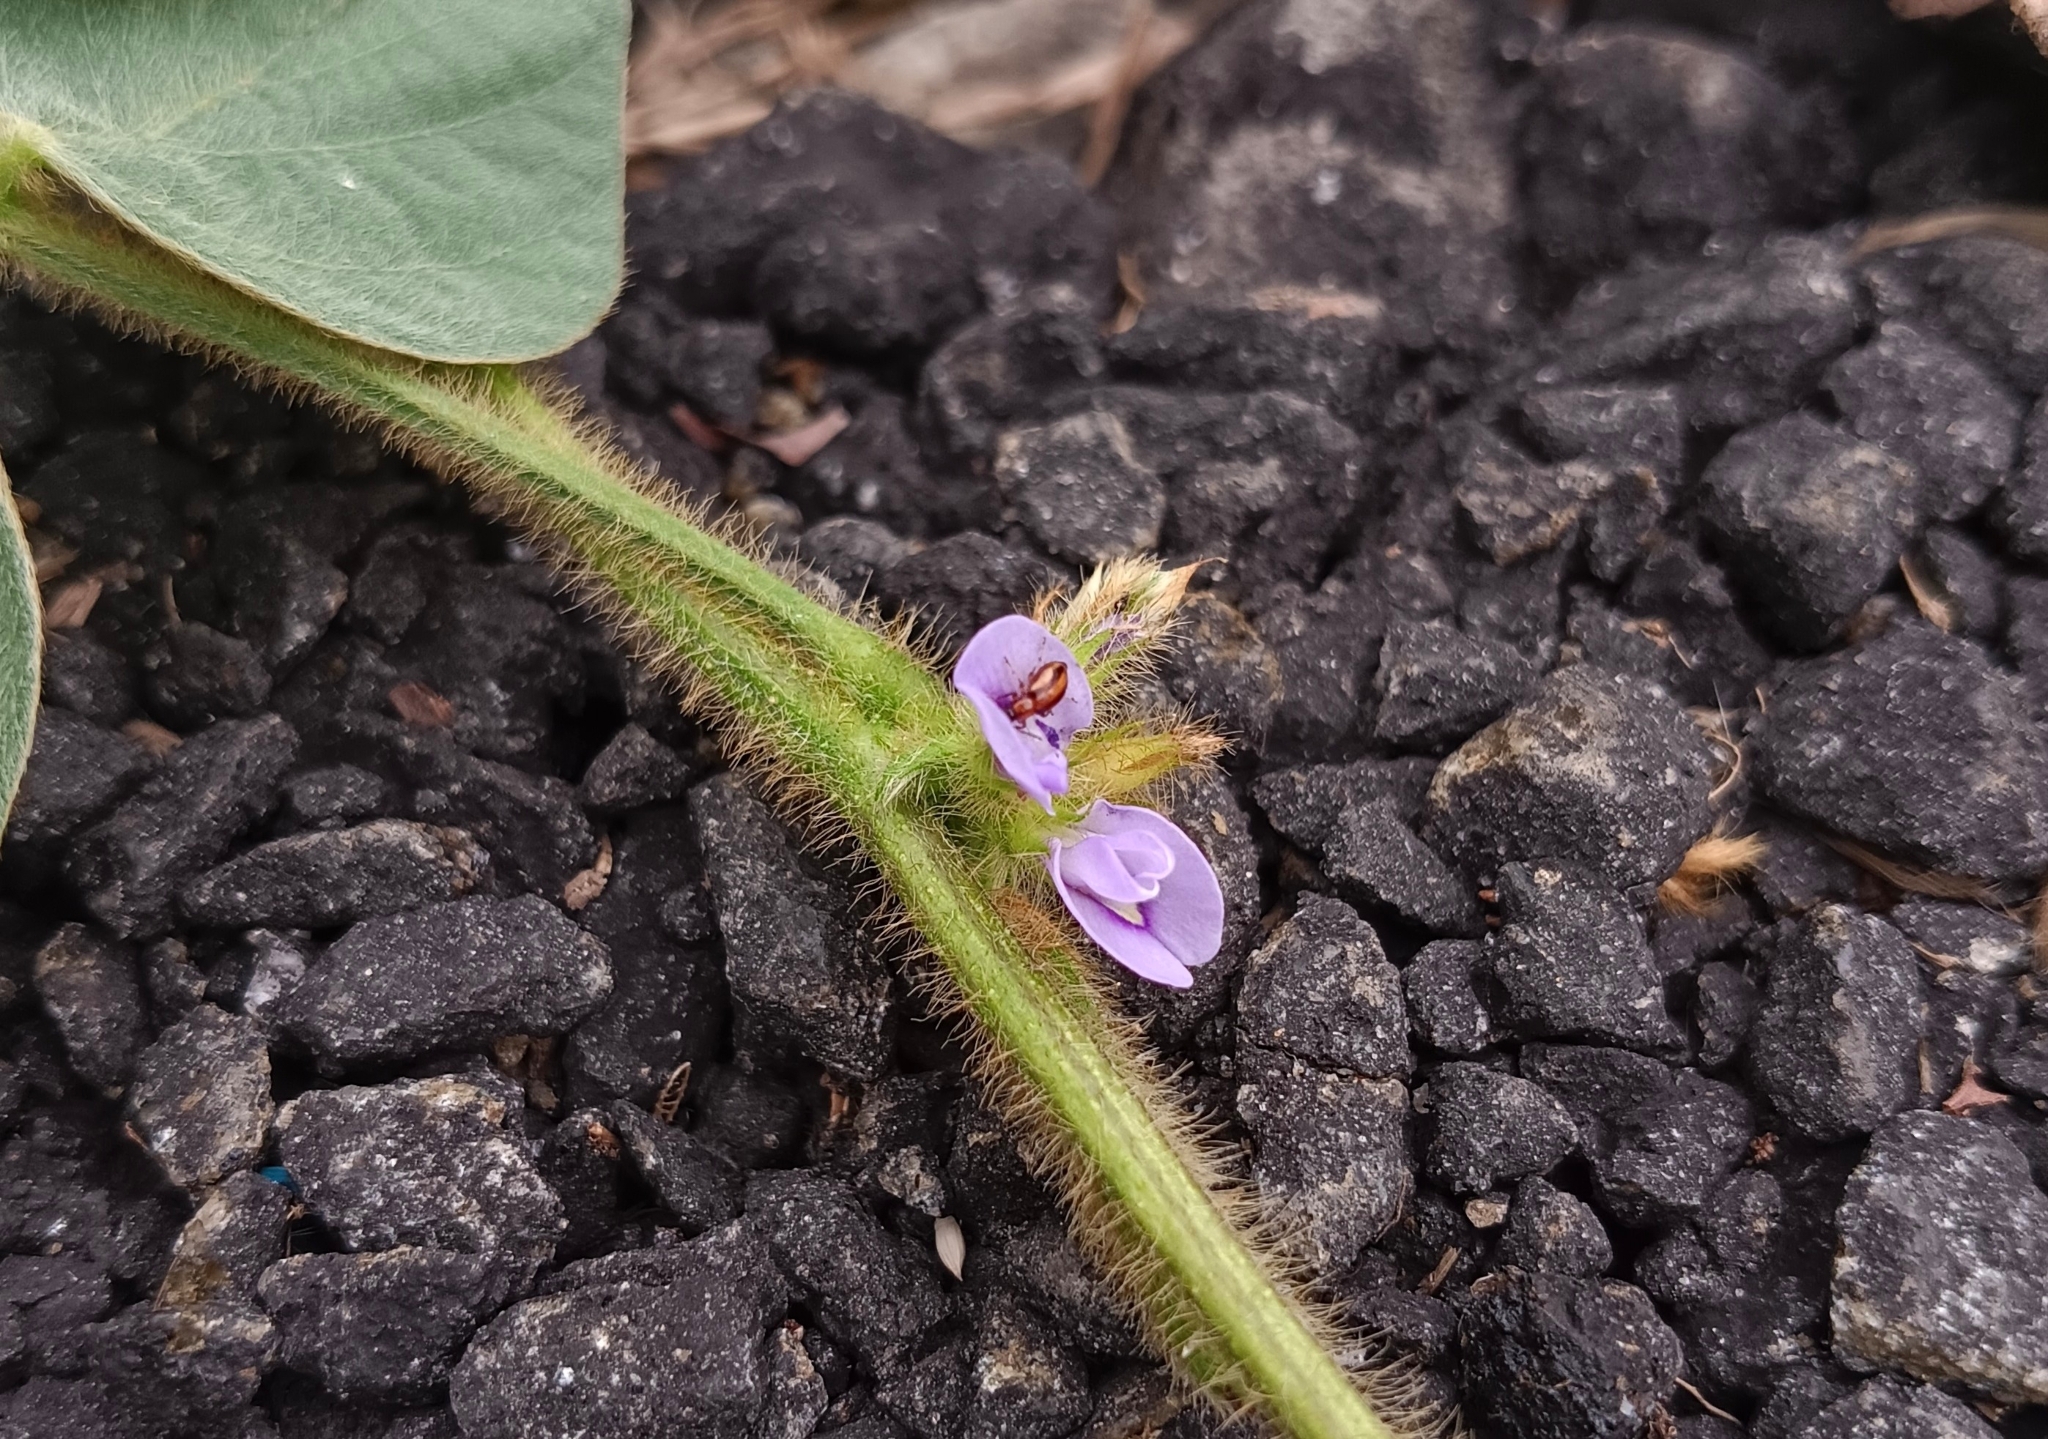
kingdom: Plantae
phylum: Tracheophyta
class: Magnoliopsida
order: Fabales
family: Fabaceae
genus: Calopogonium
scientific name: Calopogonium mucunoides
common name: Calopo
